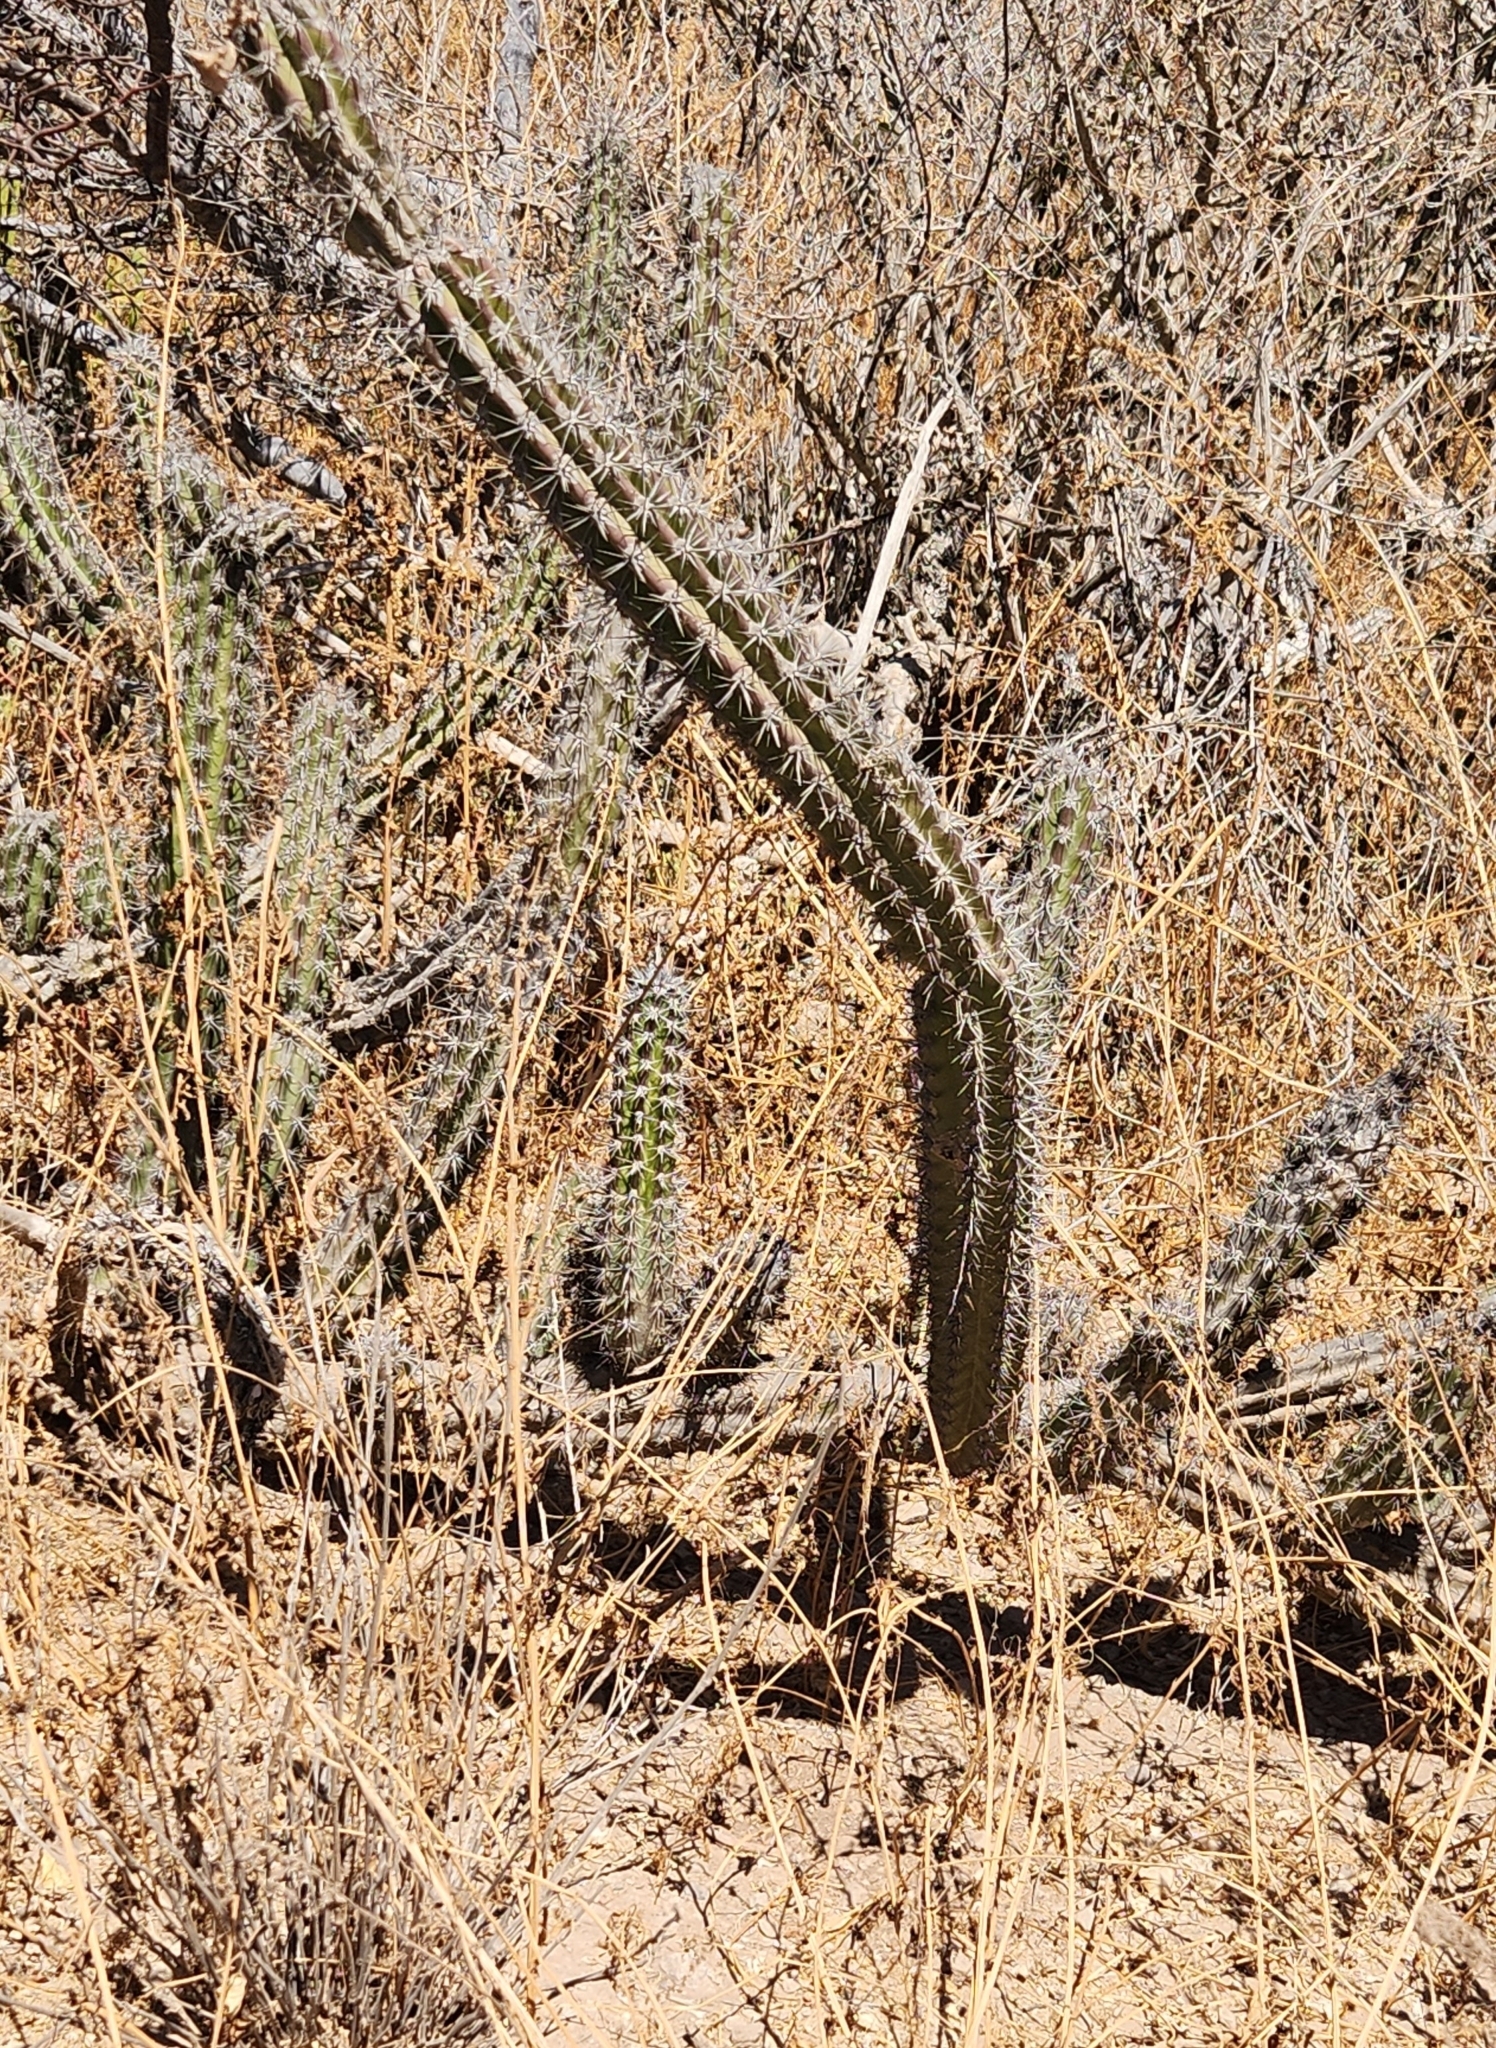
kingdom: Plantae
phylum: Tracheophyta
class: Magnoliopsida
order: Caryophyllales
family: Cactaceae
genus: Stenocereus
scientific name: Stenocereus gummosus
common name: Dagger cactus
